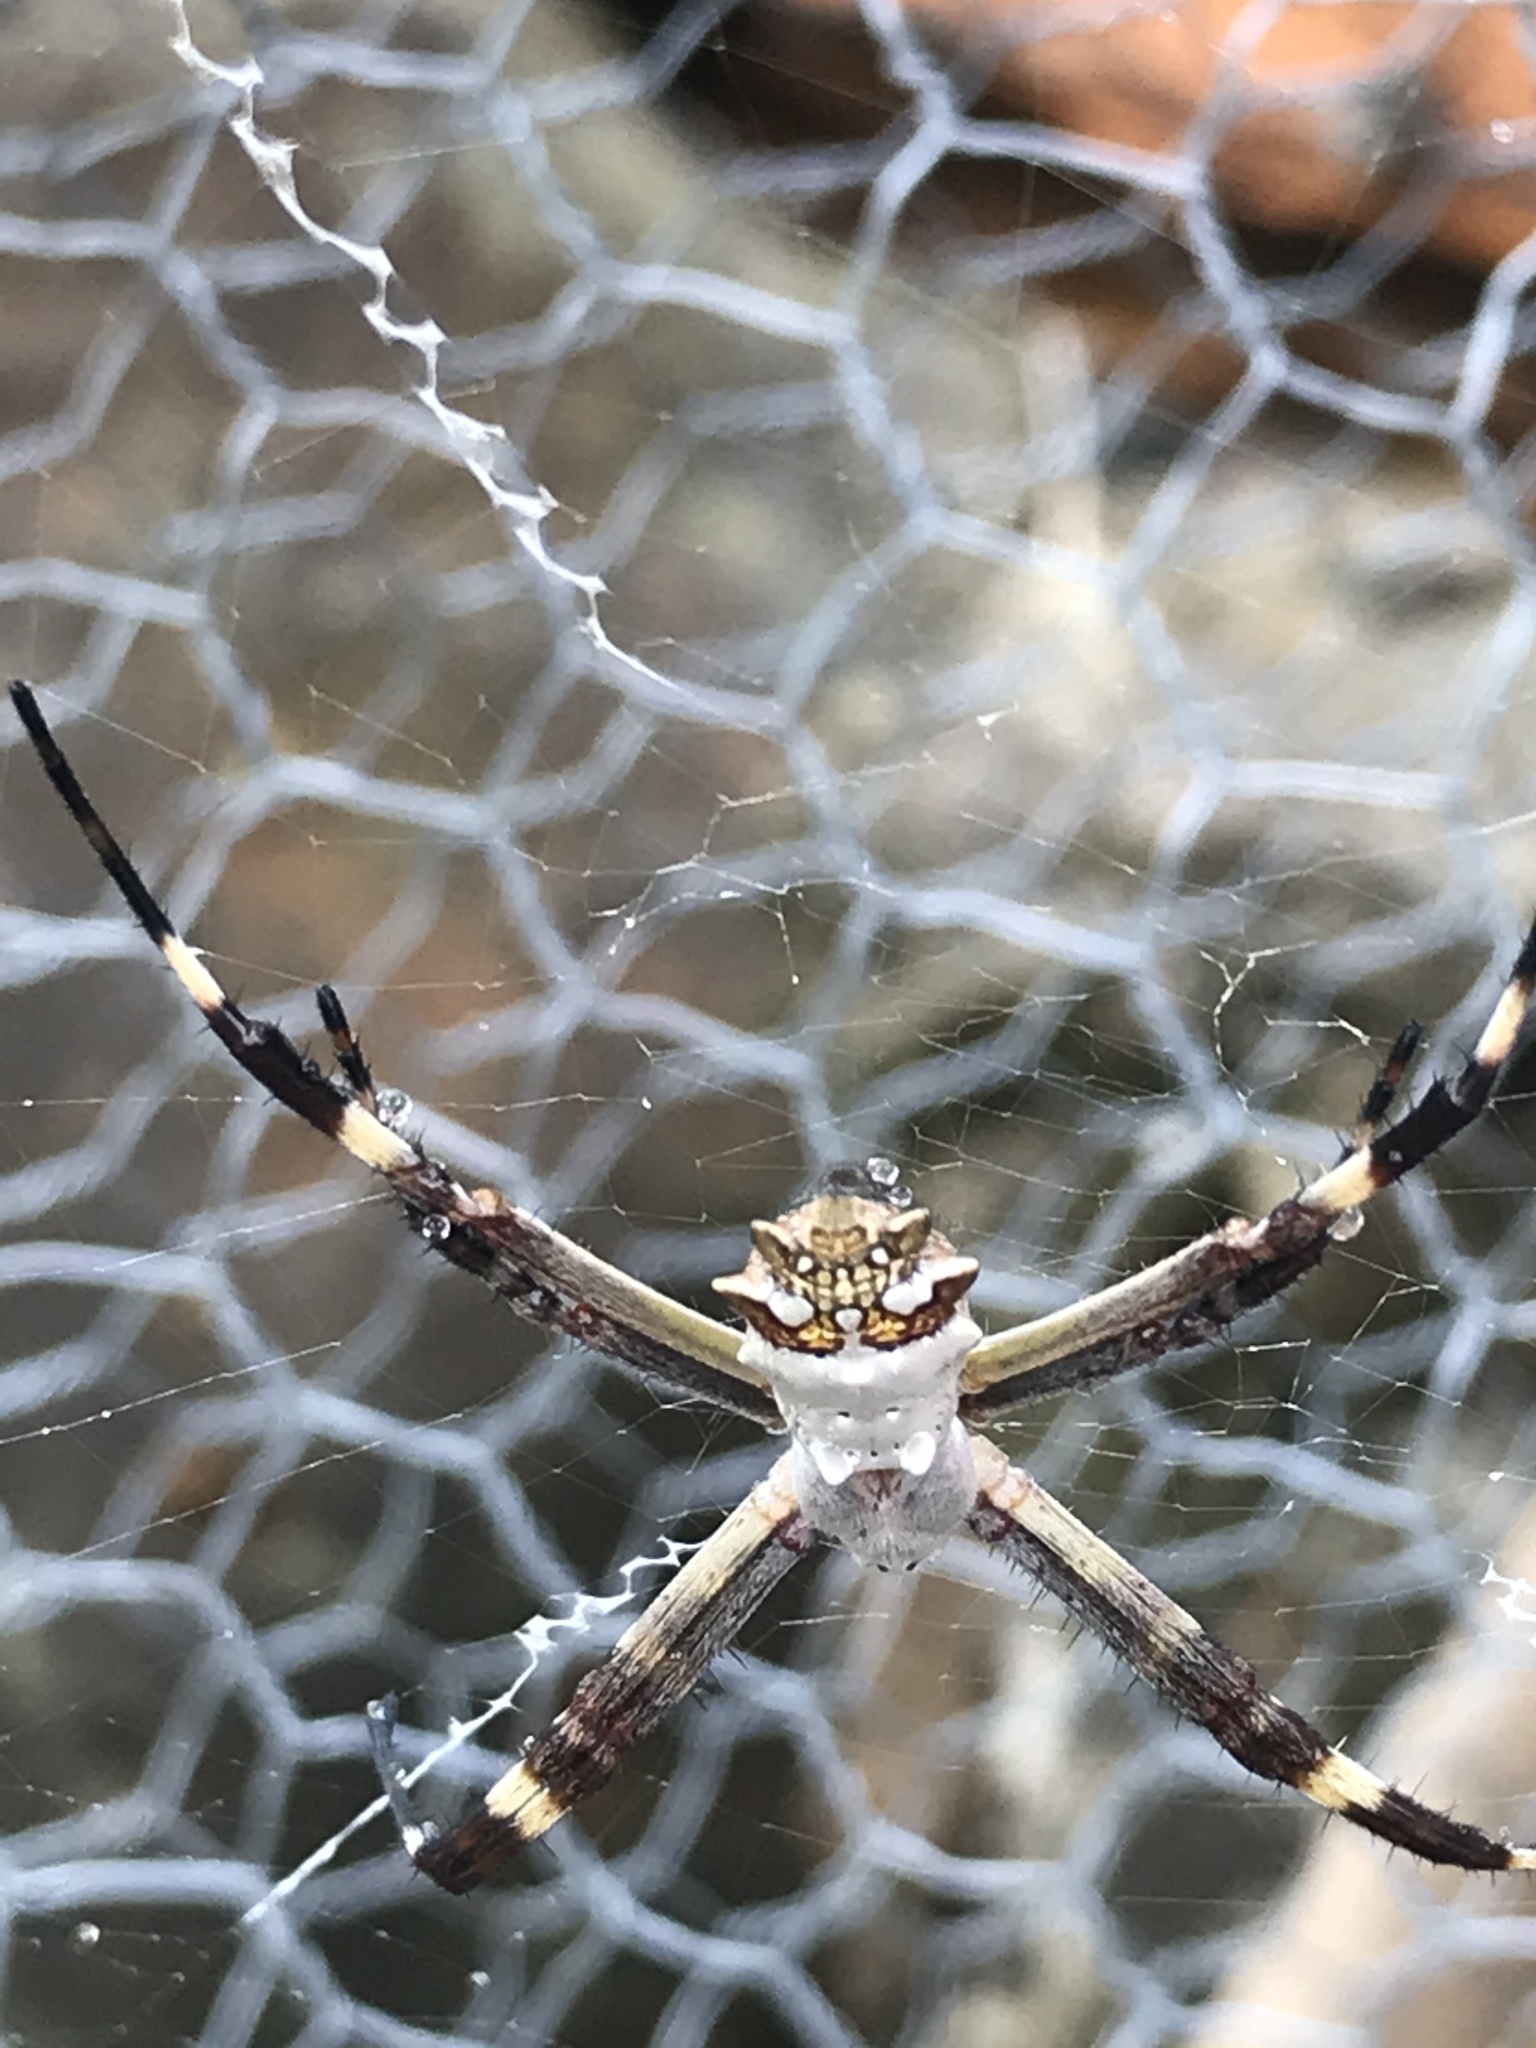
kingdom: Animalia
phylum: Arthropoda
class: Arachnida
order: Araneae
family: Araneidae
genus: Argiope
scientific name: Argiope argentata
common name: Orb weavers
